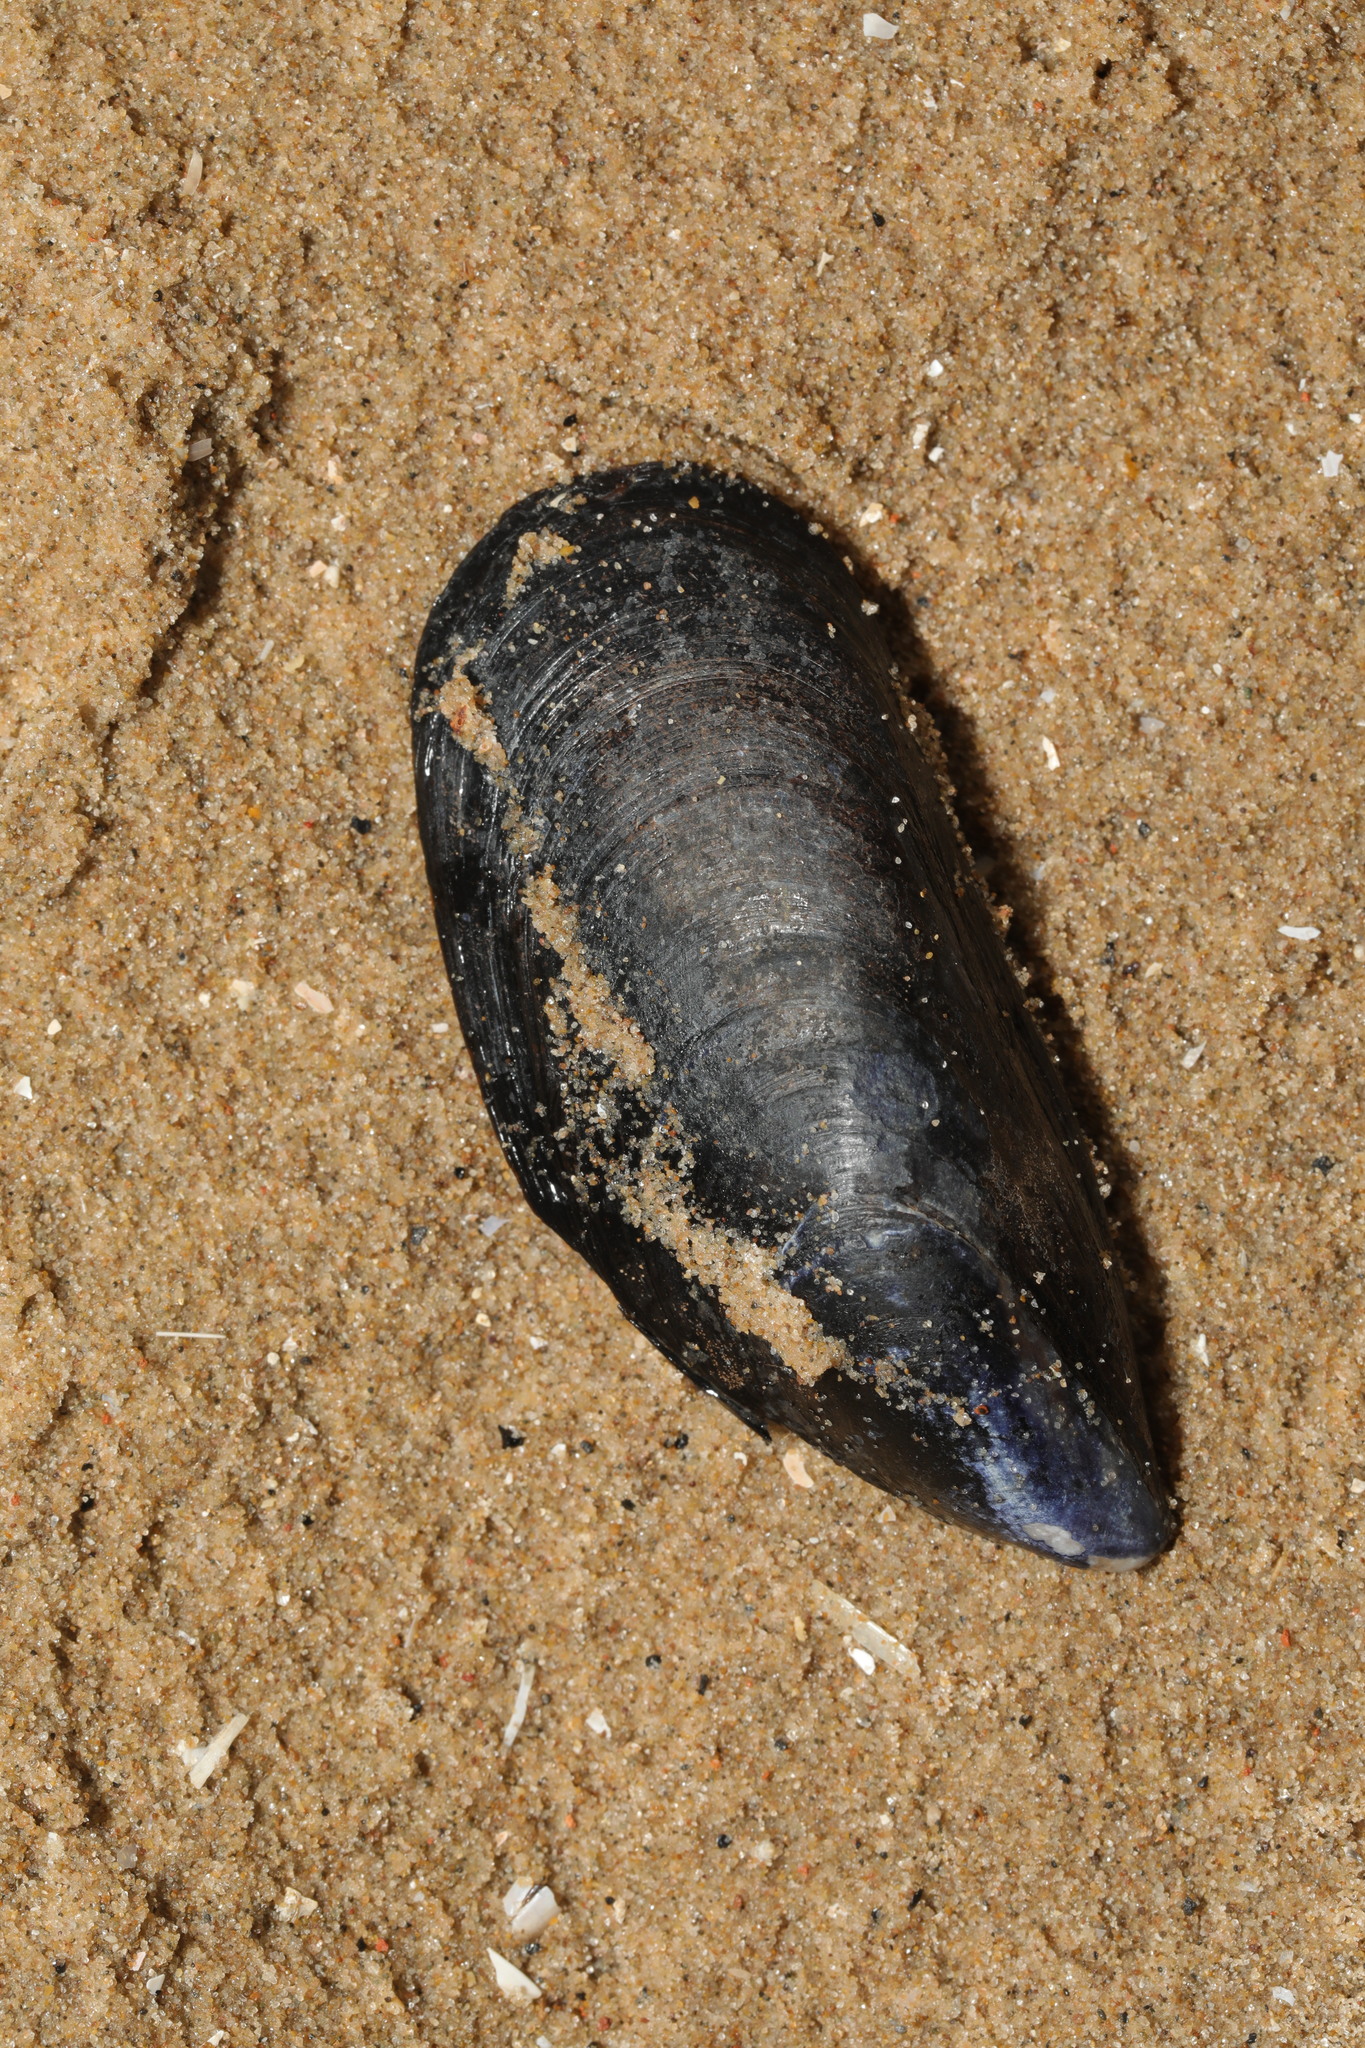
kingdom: Animalia
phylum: Mollusca
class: Bivalvia
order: Mytilida
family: Mytilidae
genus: Mytilus
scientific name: Mytilus edulis
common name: Blue mussel
